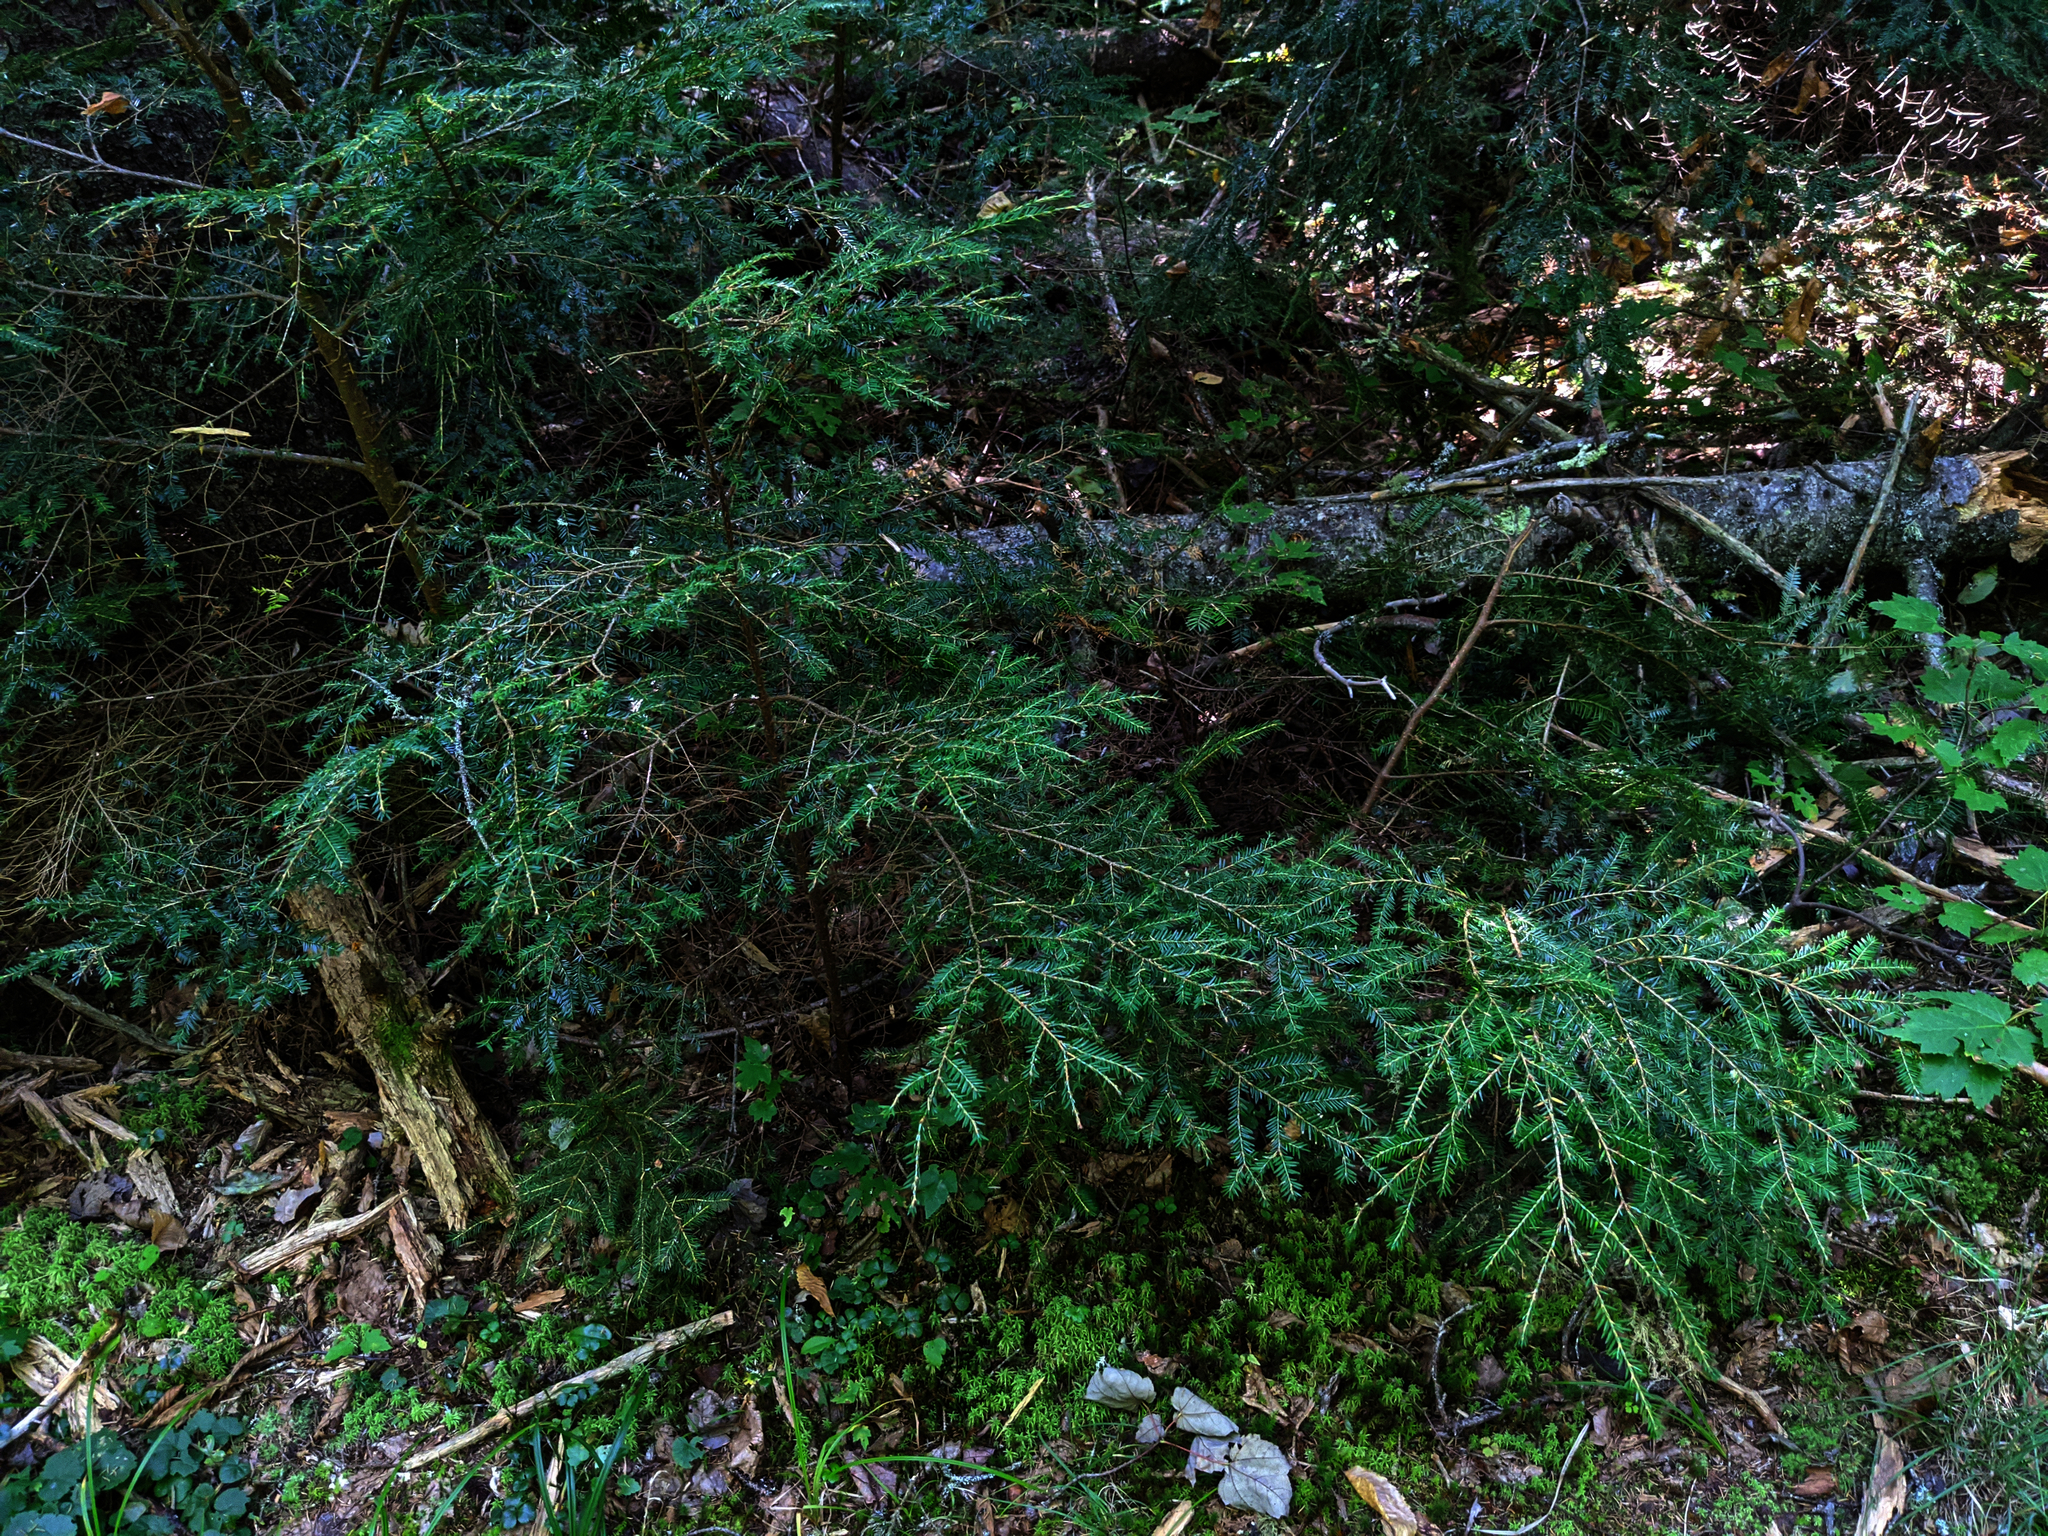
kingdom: Plantae
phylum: Tracheophyta
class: Pinopsida
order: Pinales
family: Pinaceae
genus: Tsuga
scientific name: Tsuga canadensis
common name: Eastern hemlock
